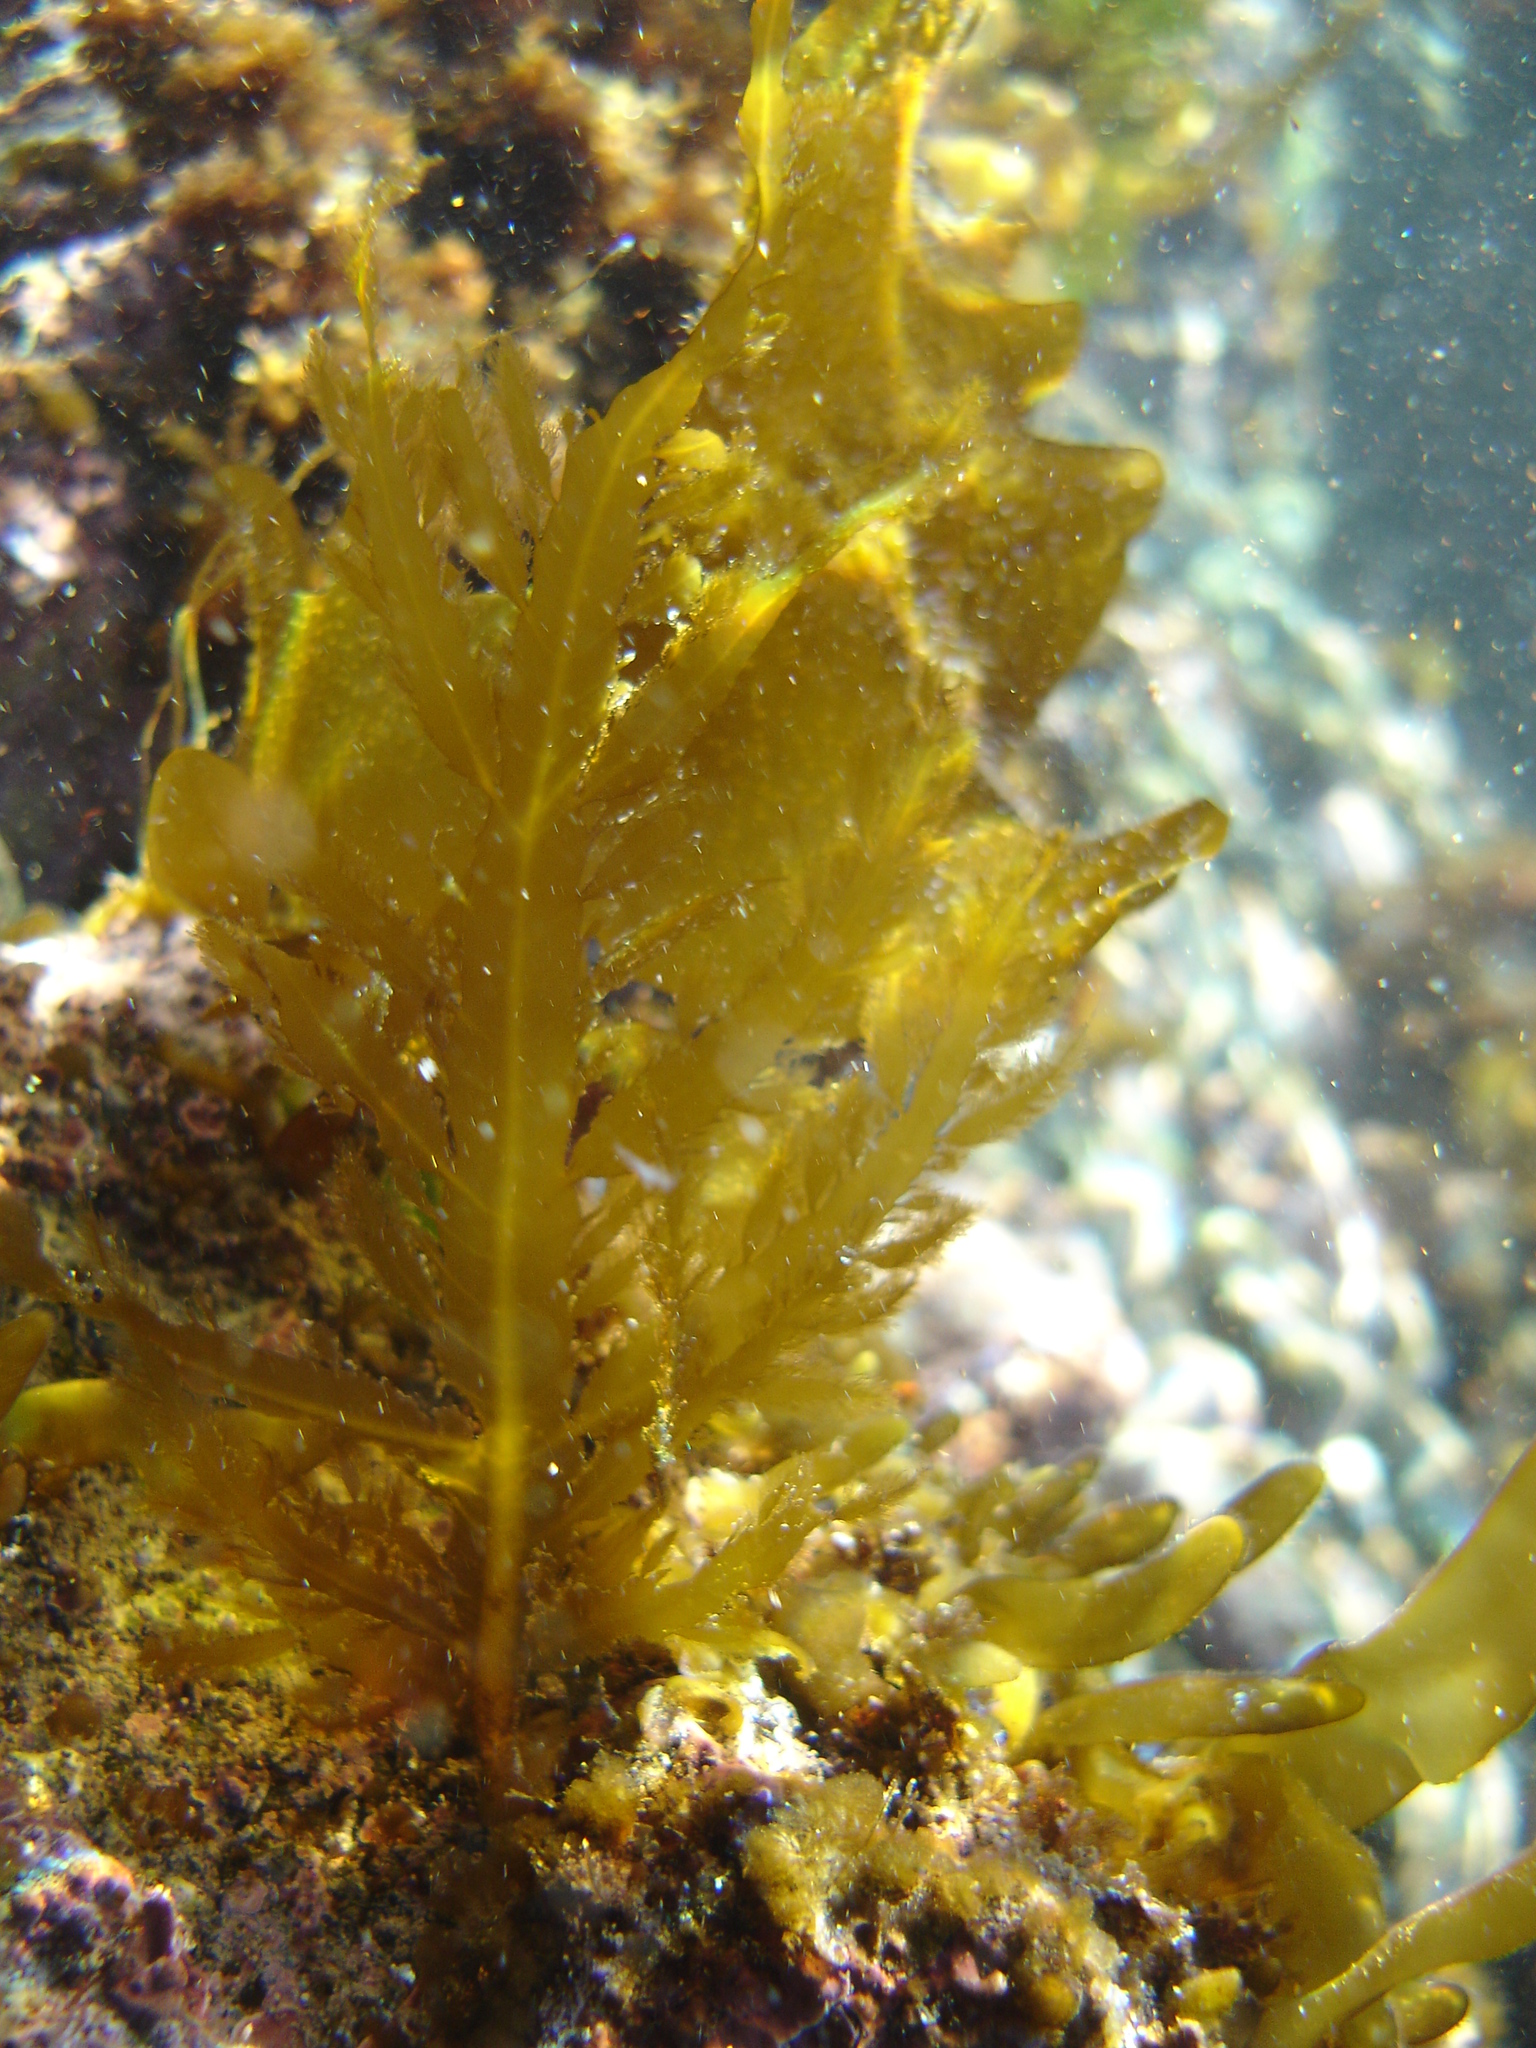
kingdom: Chromista
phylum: Ochrophyta
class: Phaeophyceae
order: Desmarestiales
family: Desmarestiaceae
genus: Desmarestia
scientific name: Desmarestia ligulata
